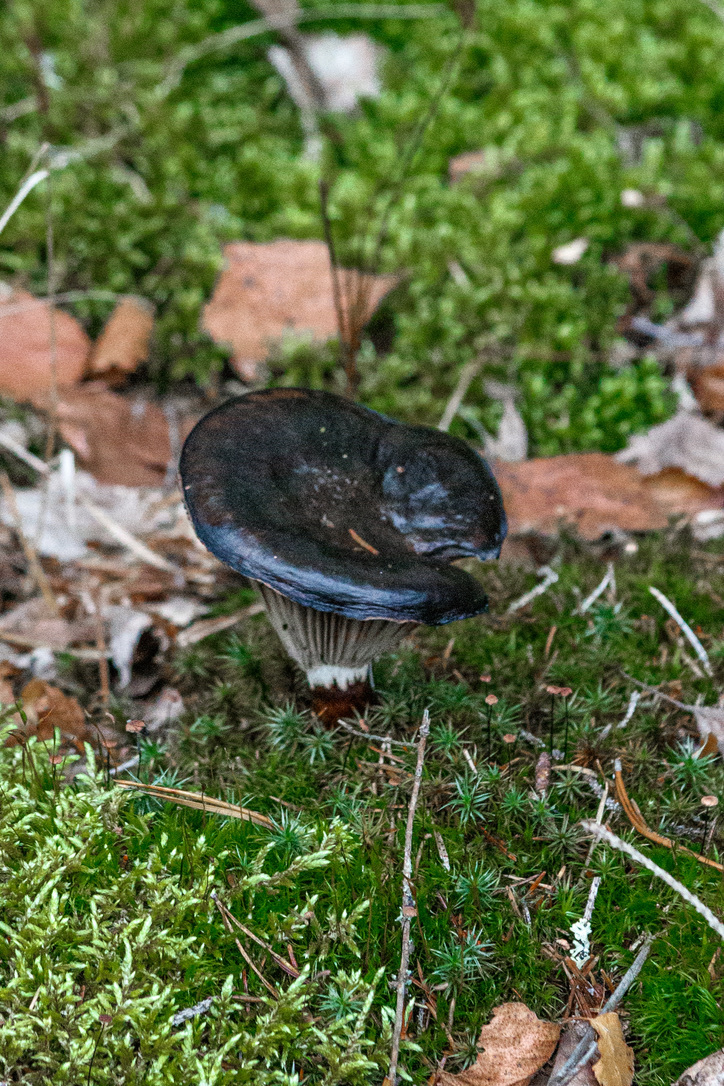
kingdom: Fungi
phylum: Basidiomycota
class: Agaricomycetes
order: Boletales
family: Gomphidiaceae
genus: Gomphidius
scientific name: Gomphidius glutinosus
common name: Slimy spike
